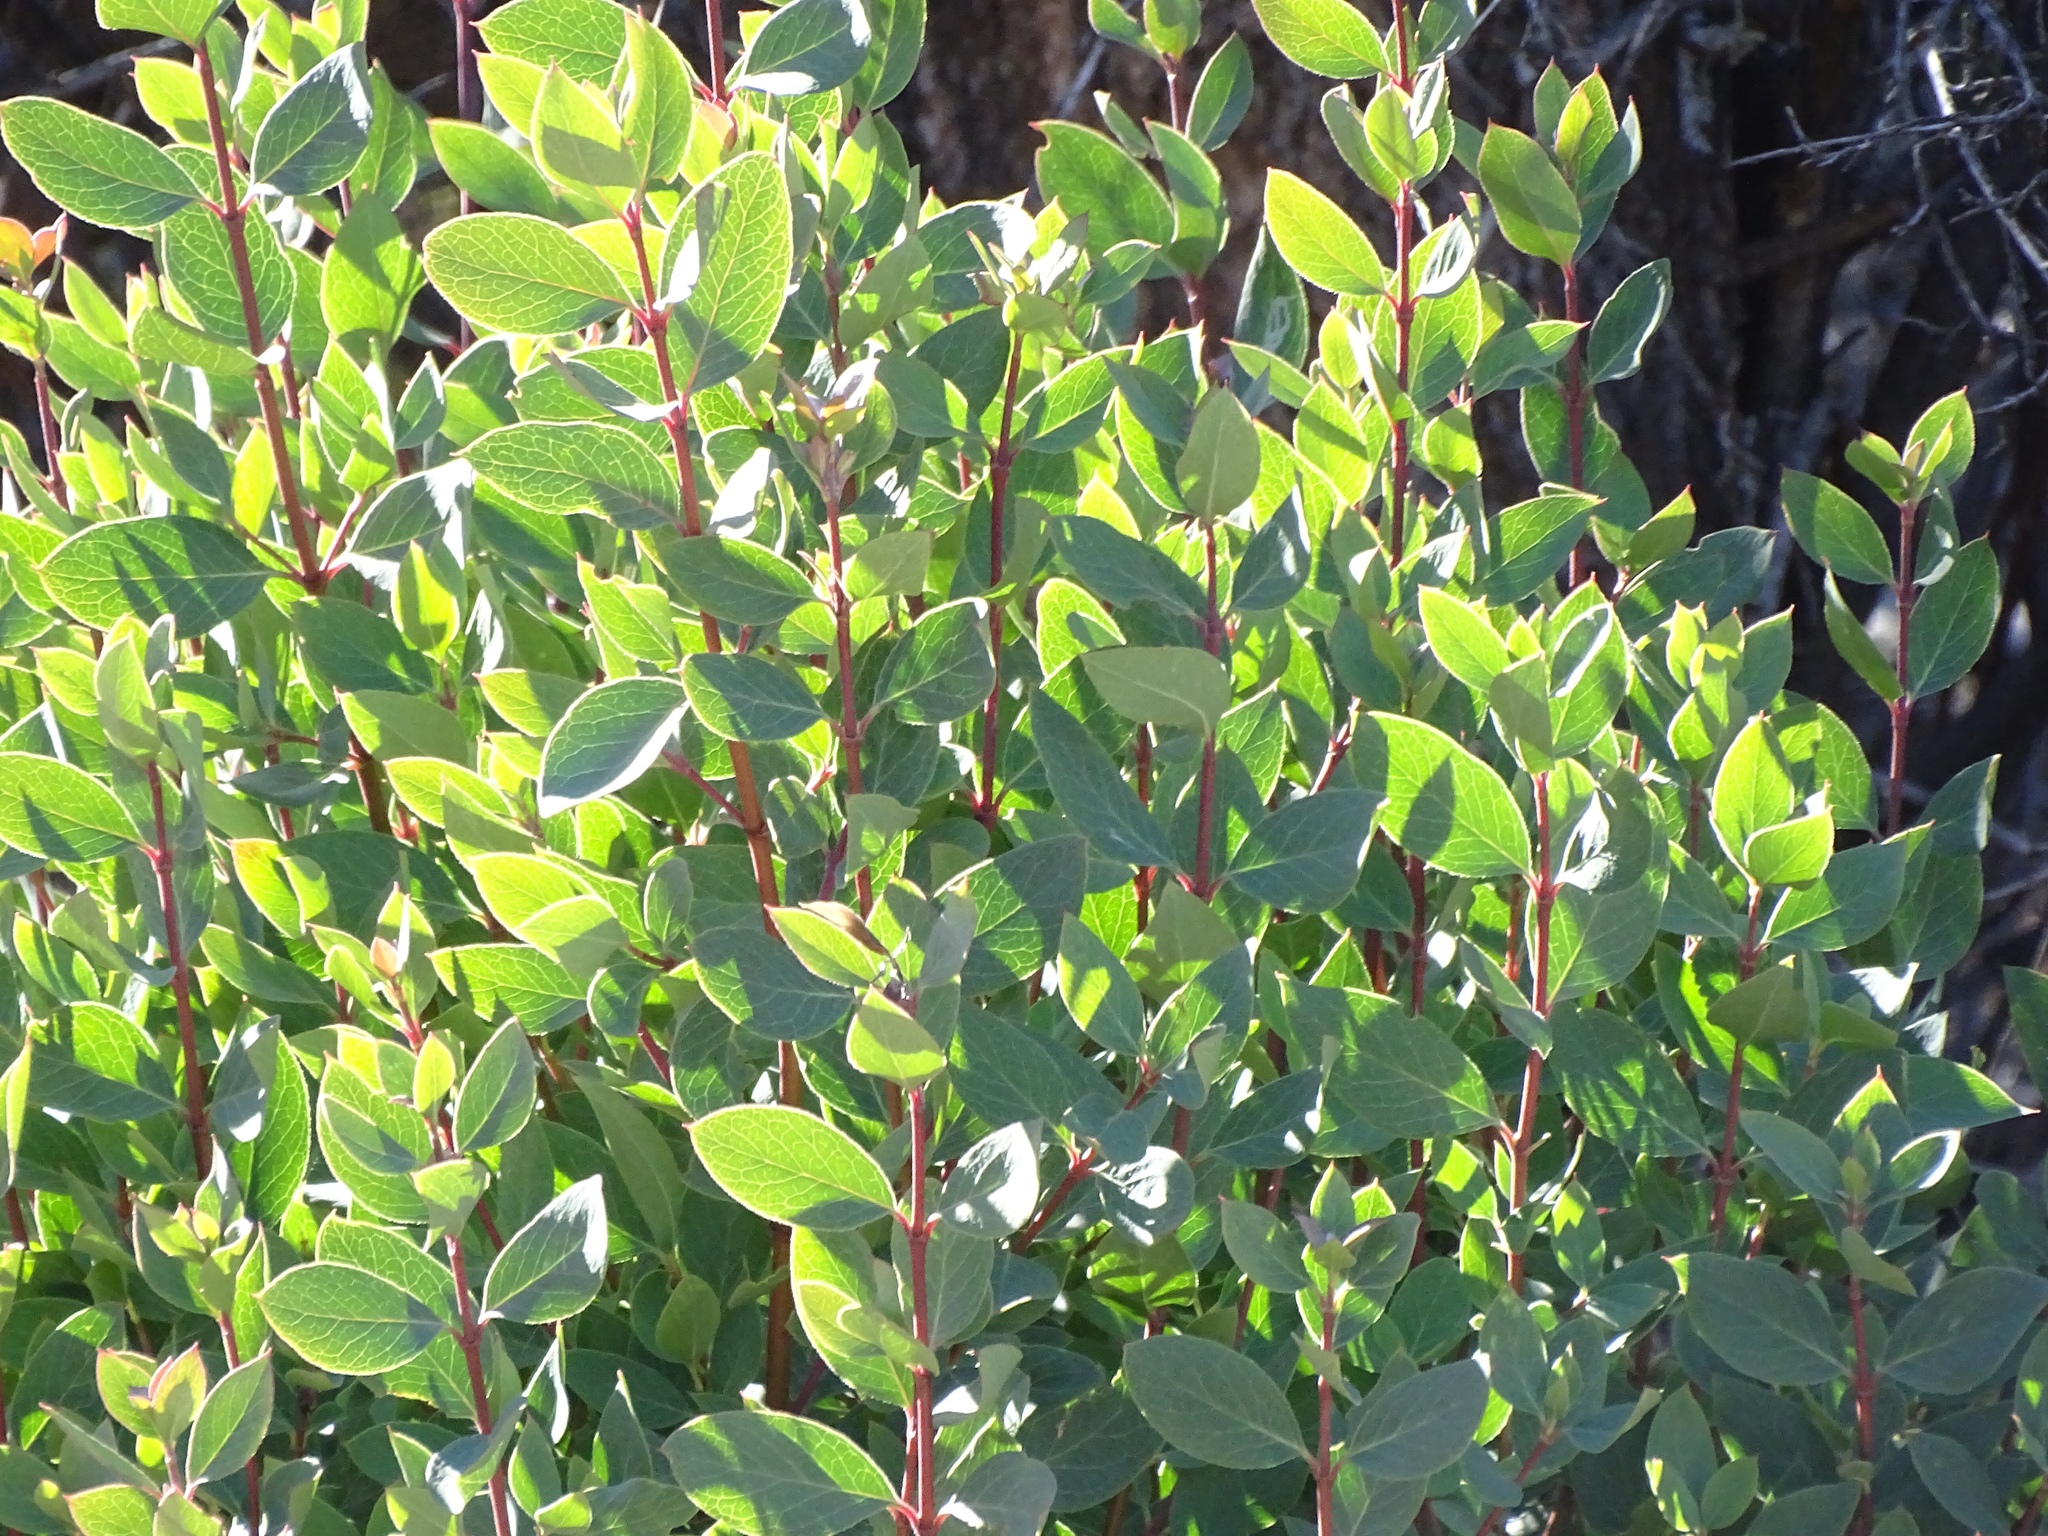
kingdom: Plantae
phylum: Tracheophyta
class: Magnoliopsida
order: Garryales
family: Garryaceae
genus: Garrya
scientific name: Garrya wrightii
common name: Wright's silktassel
